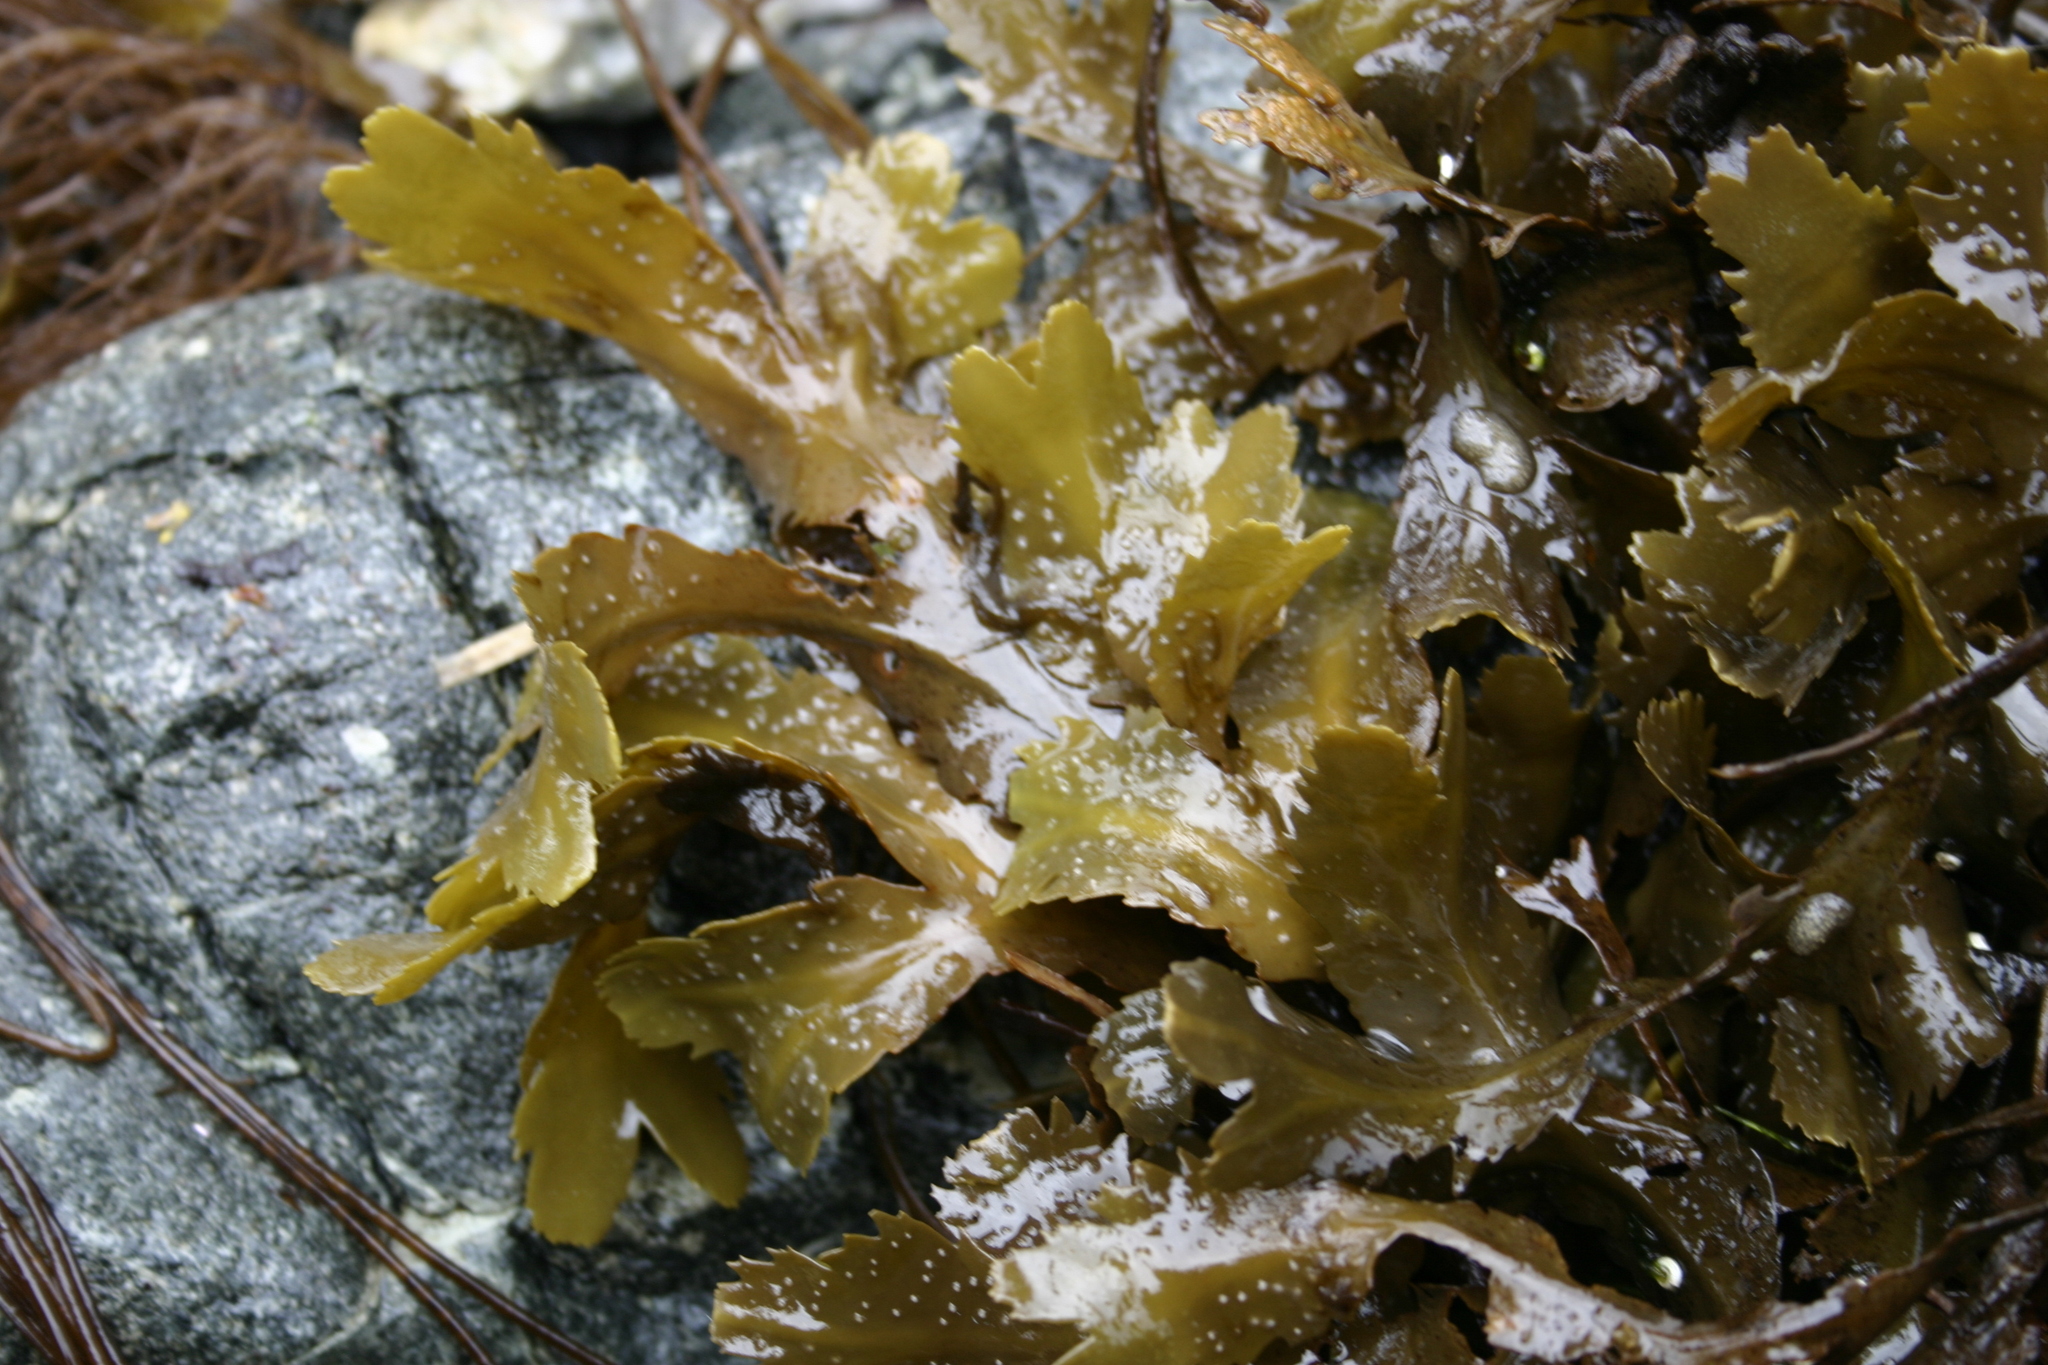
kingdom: Chromista
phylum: Ochrophyta
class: Phaeophyceae
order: Fucales
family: Fucaceae
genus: Fucus
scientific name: Fucus serratus
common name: Toothed wrack
